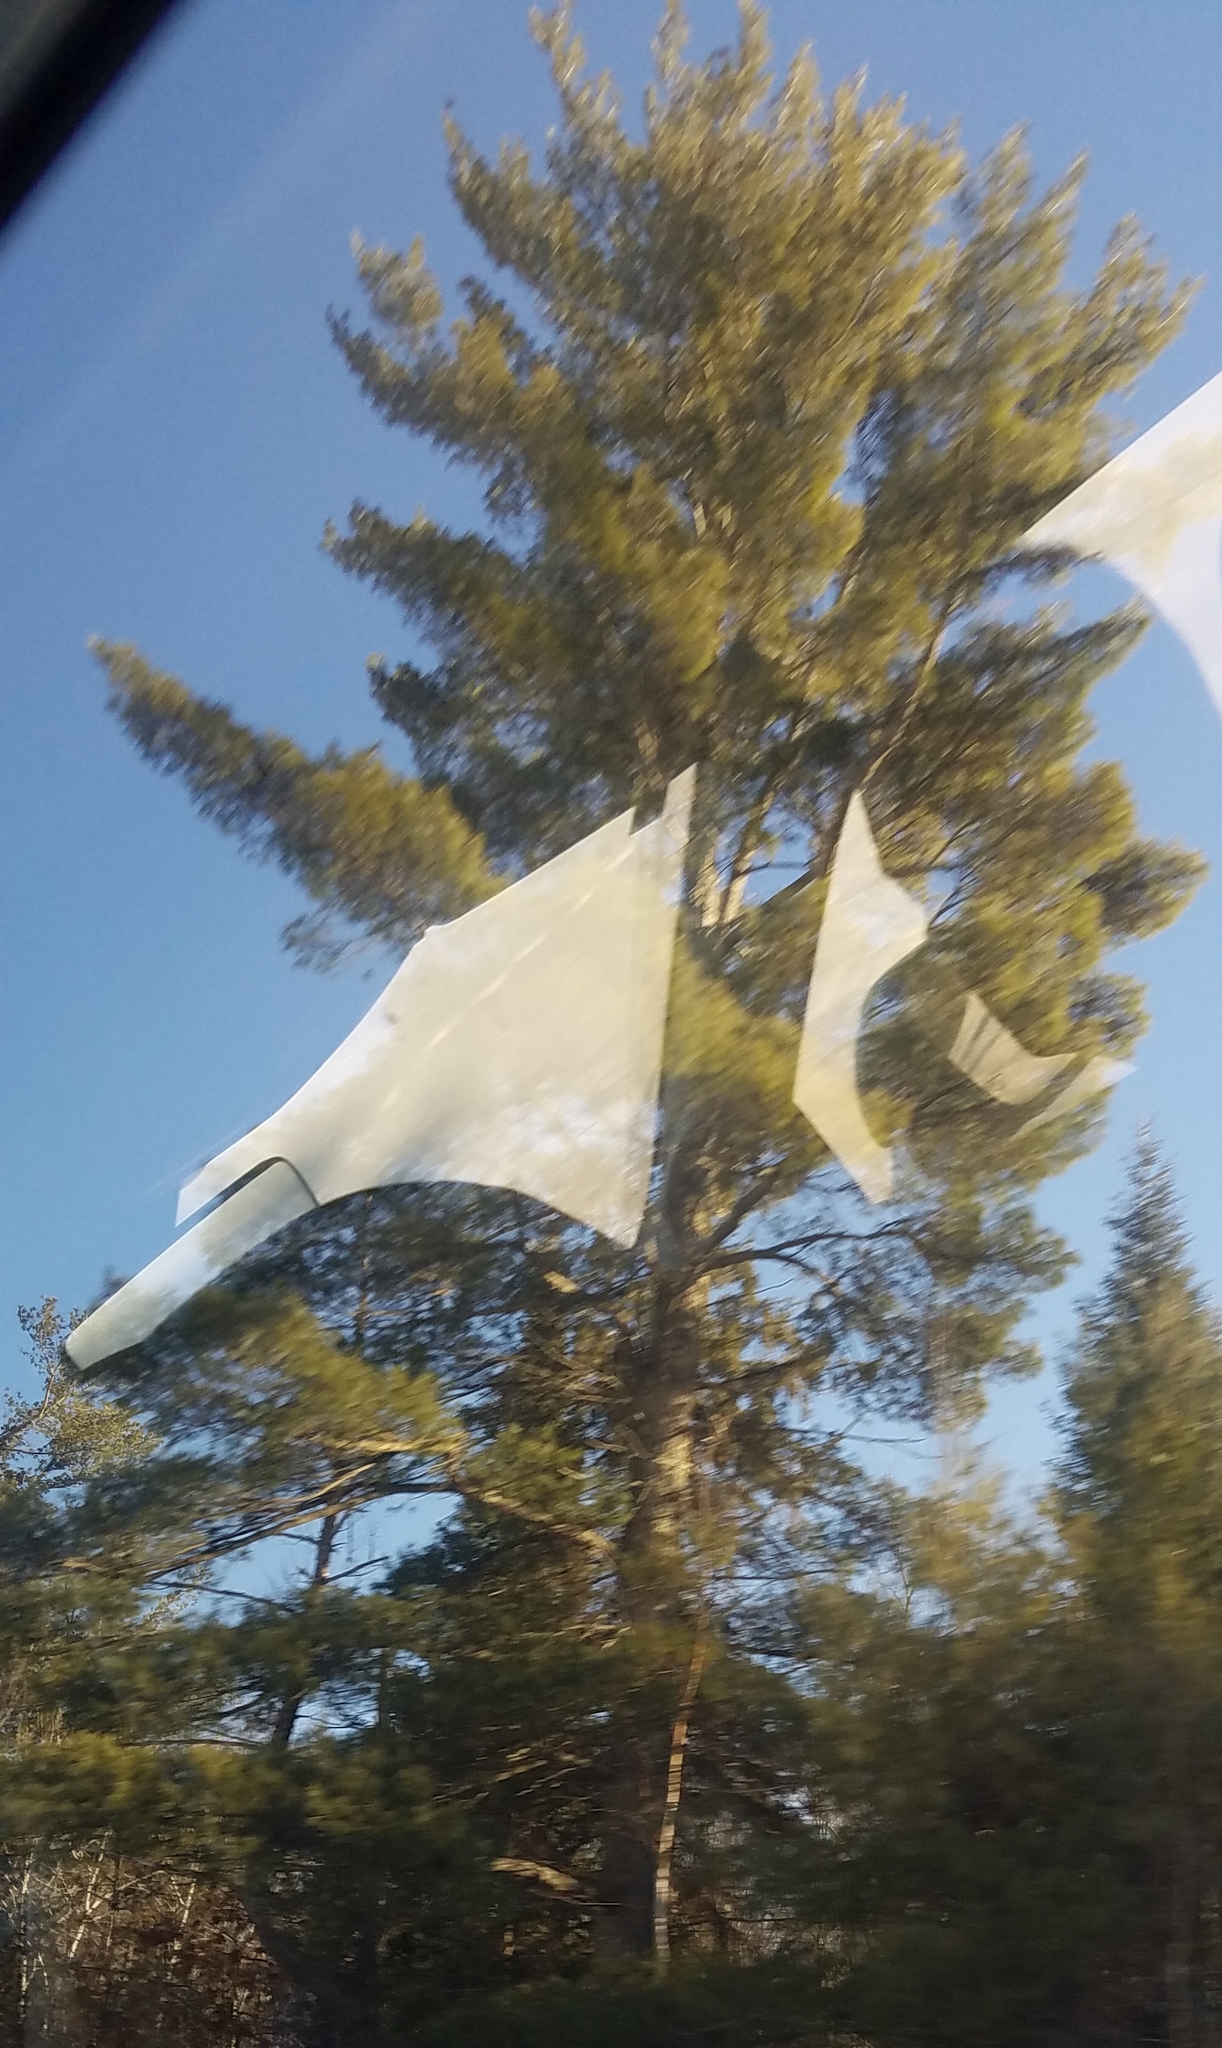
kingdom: Plantae
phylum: Tracheophyta
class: Pinopsida
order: Pinales
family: Pinaceae
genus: Pinus
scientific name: Pinus strobus
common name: Weymouth pine
